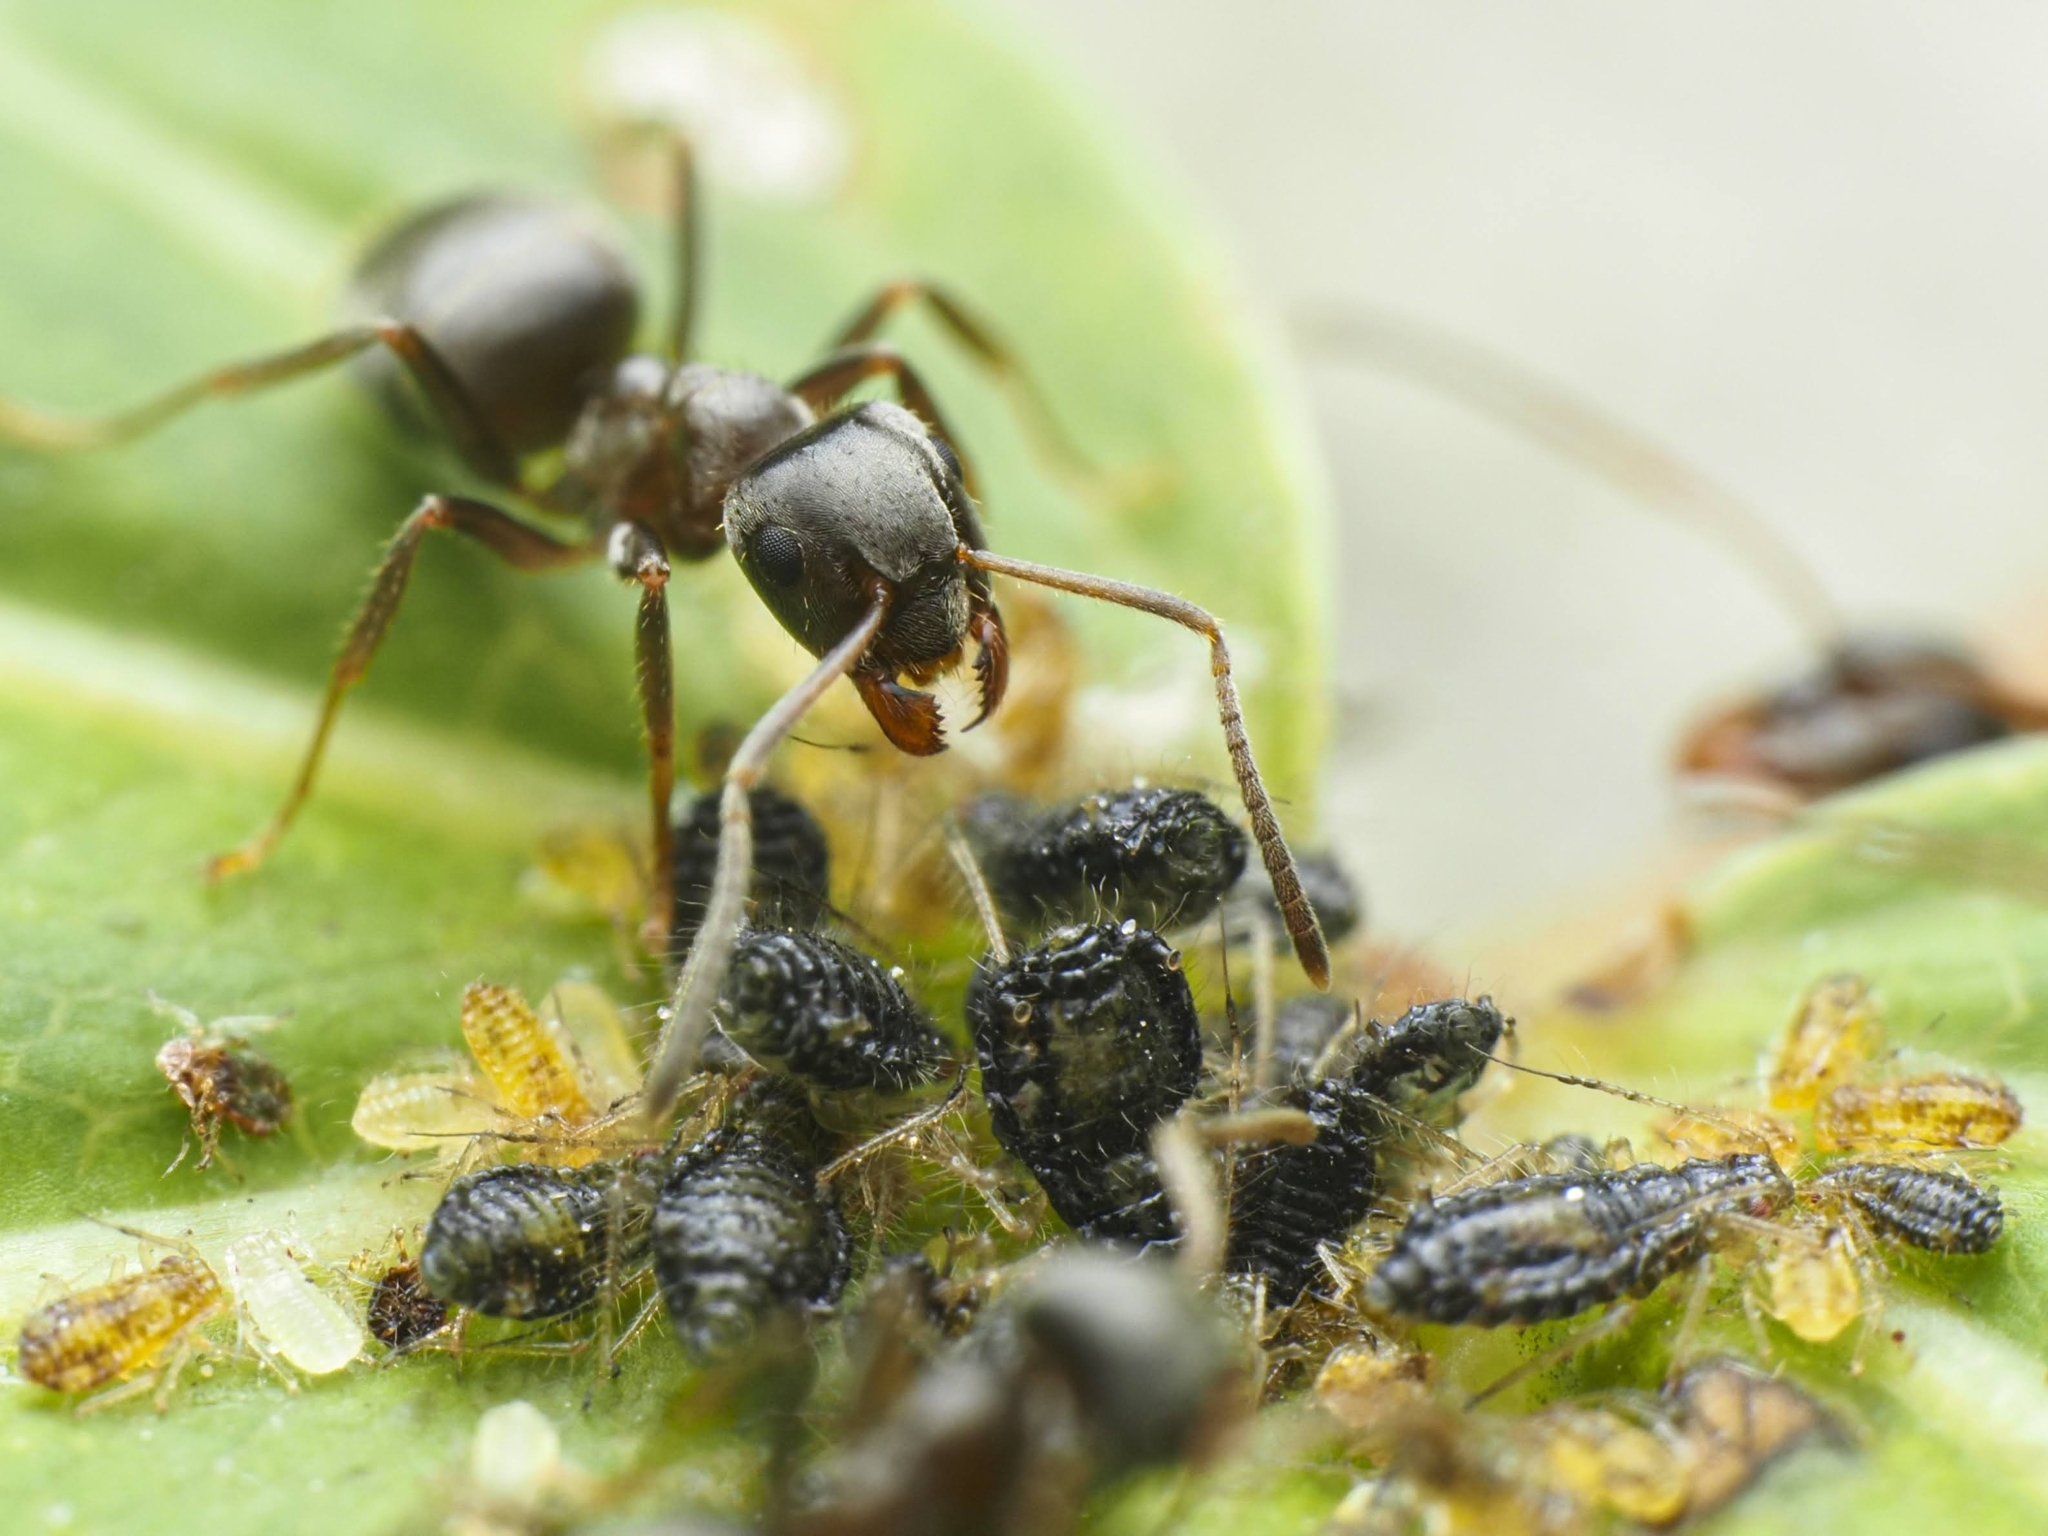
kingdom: Animalia
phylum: Arthropoda
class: Insecta
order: Hymenoptera
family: Formicidae
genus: Lasius
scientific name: Lasius niger
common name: Small black ant
